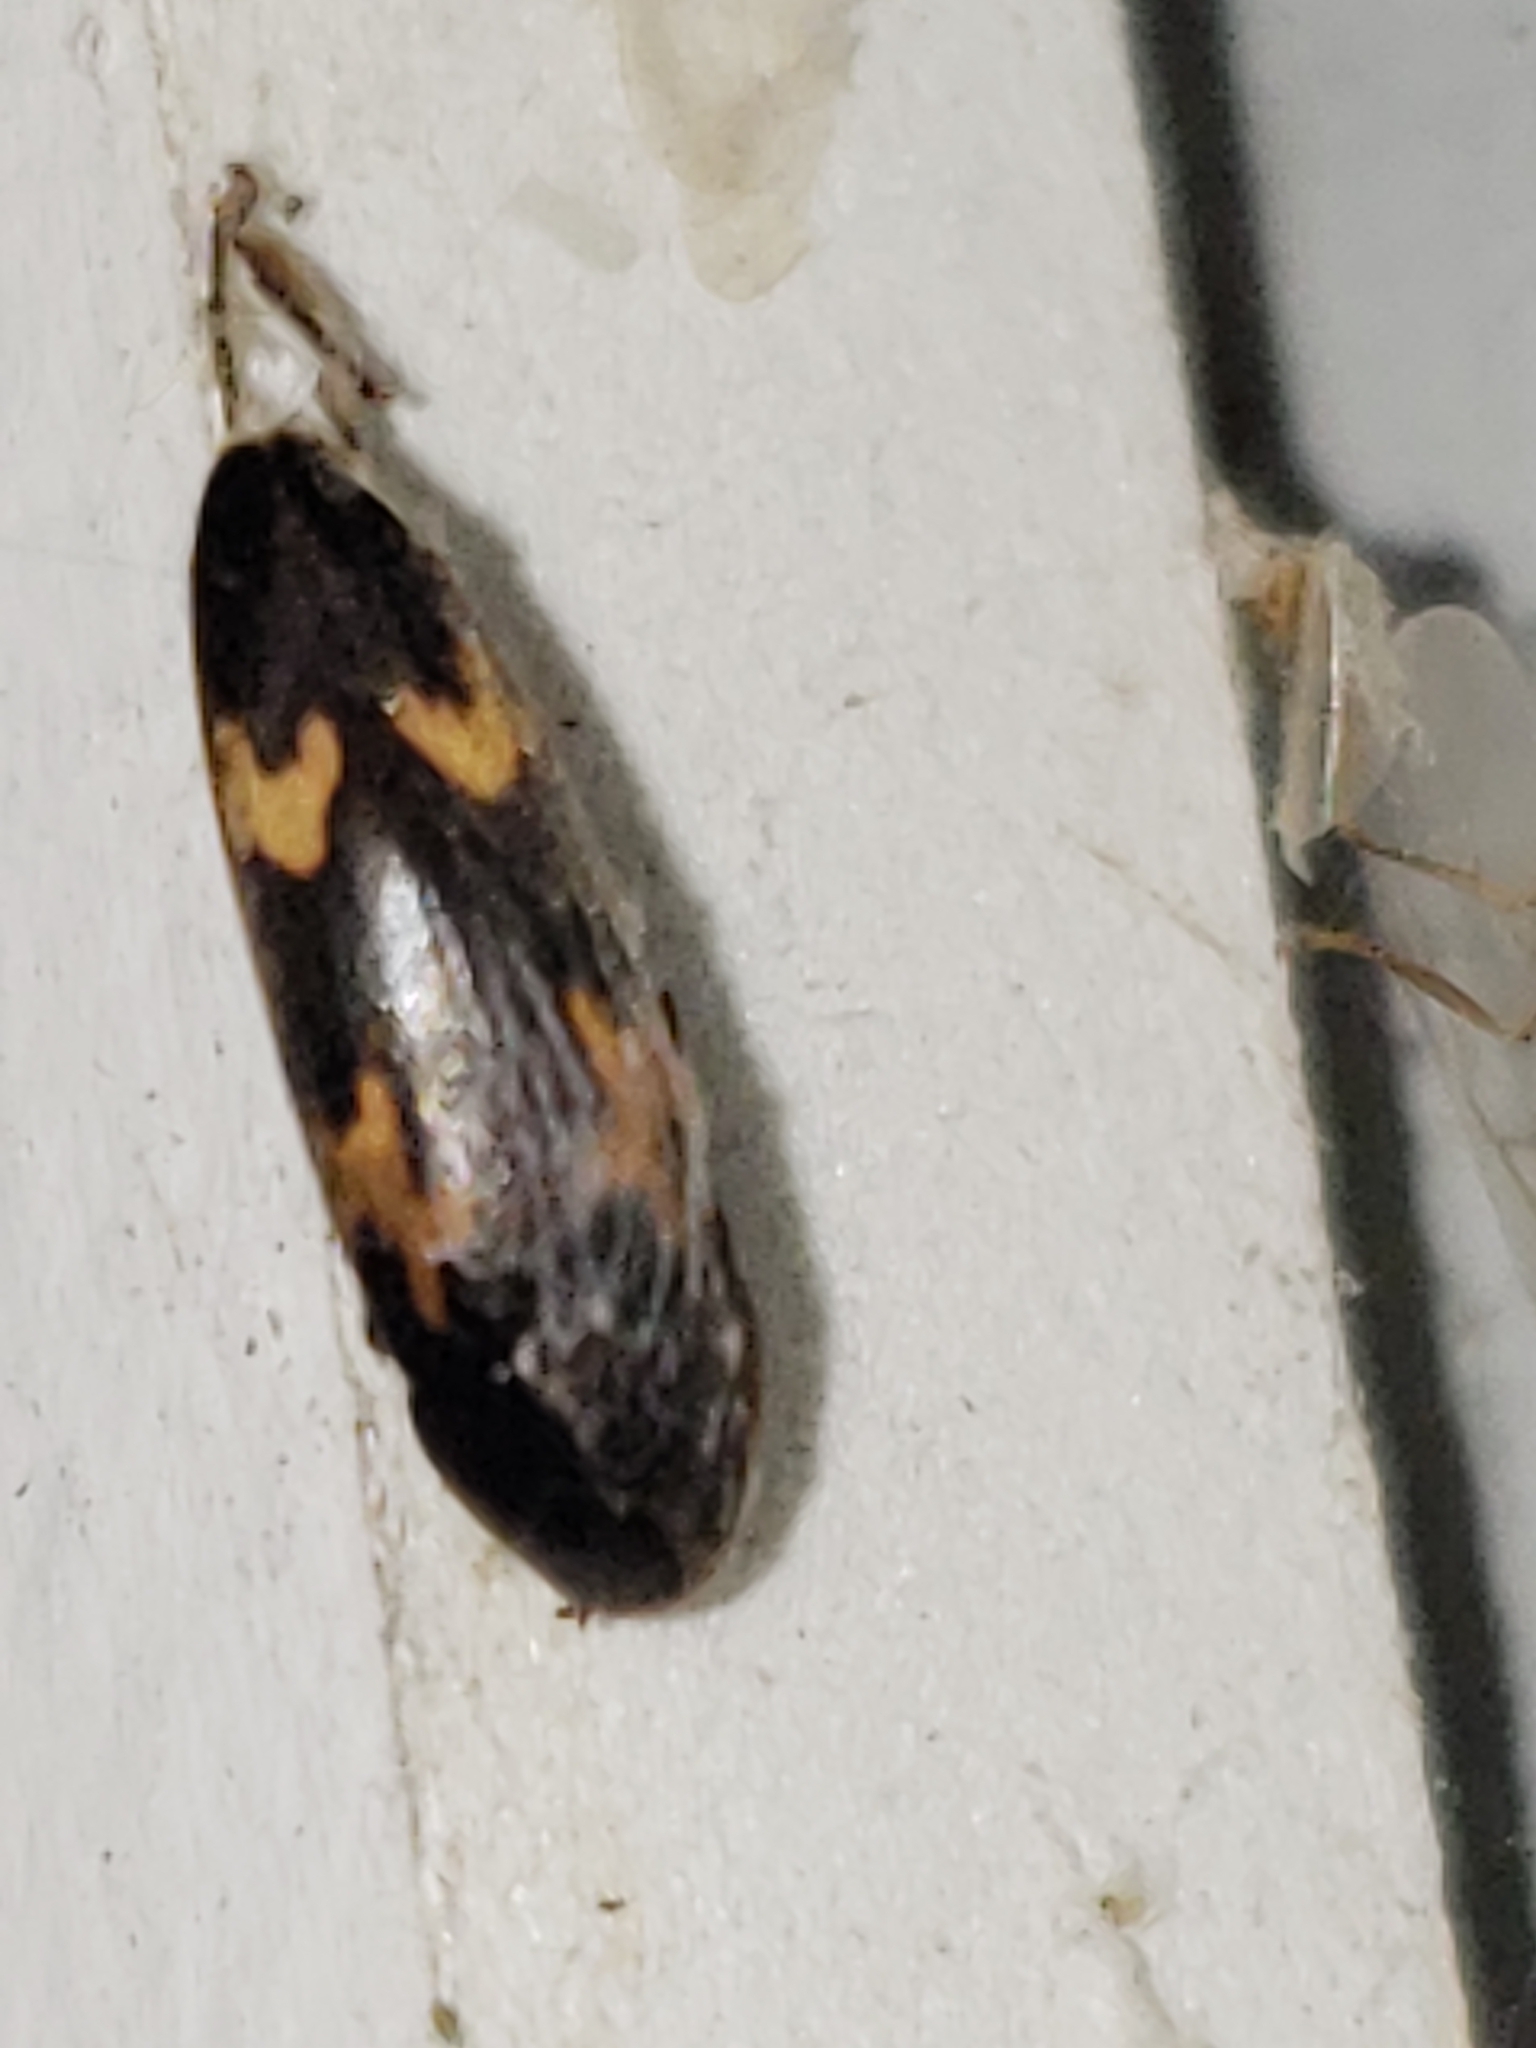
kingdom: Animalia
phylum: Arthropoda
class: Insecta
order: Coleoptera
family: Melandryidae
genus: Dircaea
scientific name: Dircaea liturata
